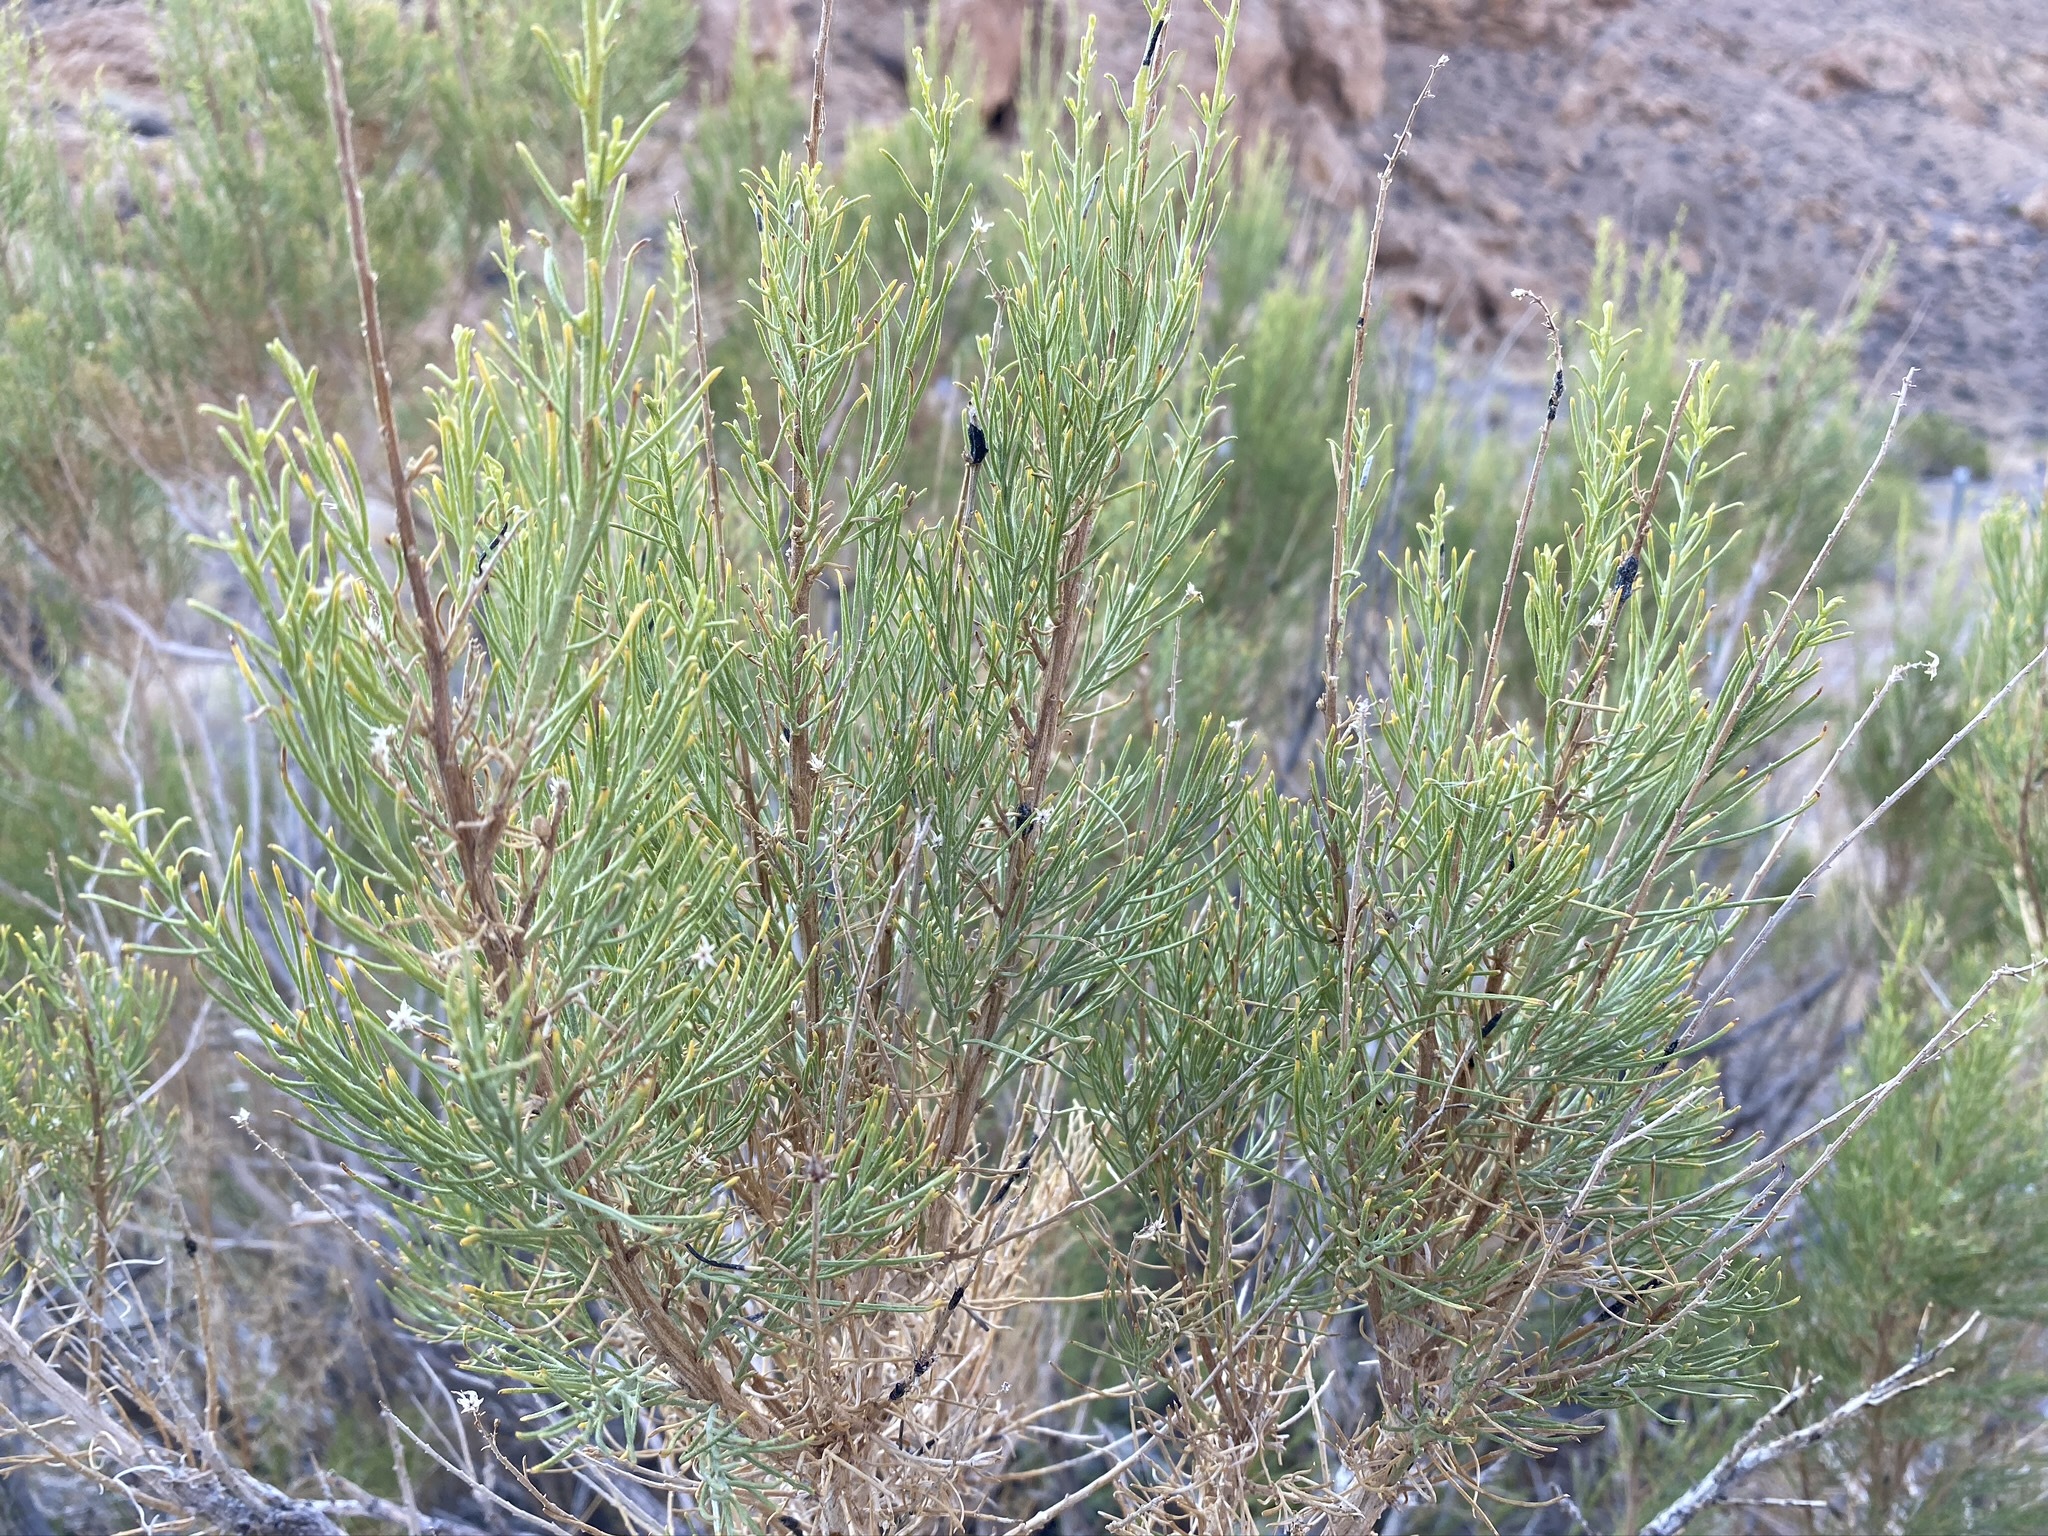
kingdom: Plantae
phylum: Tracheophyta
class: Magnoliopsida
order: Asterales
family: Asteraceae
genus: Ericameria
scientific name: Ericameria paniculata
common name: Punctate rabbitbrush
